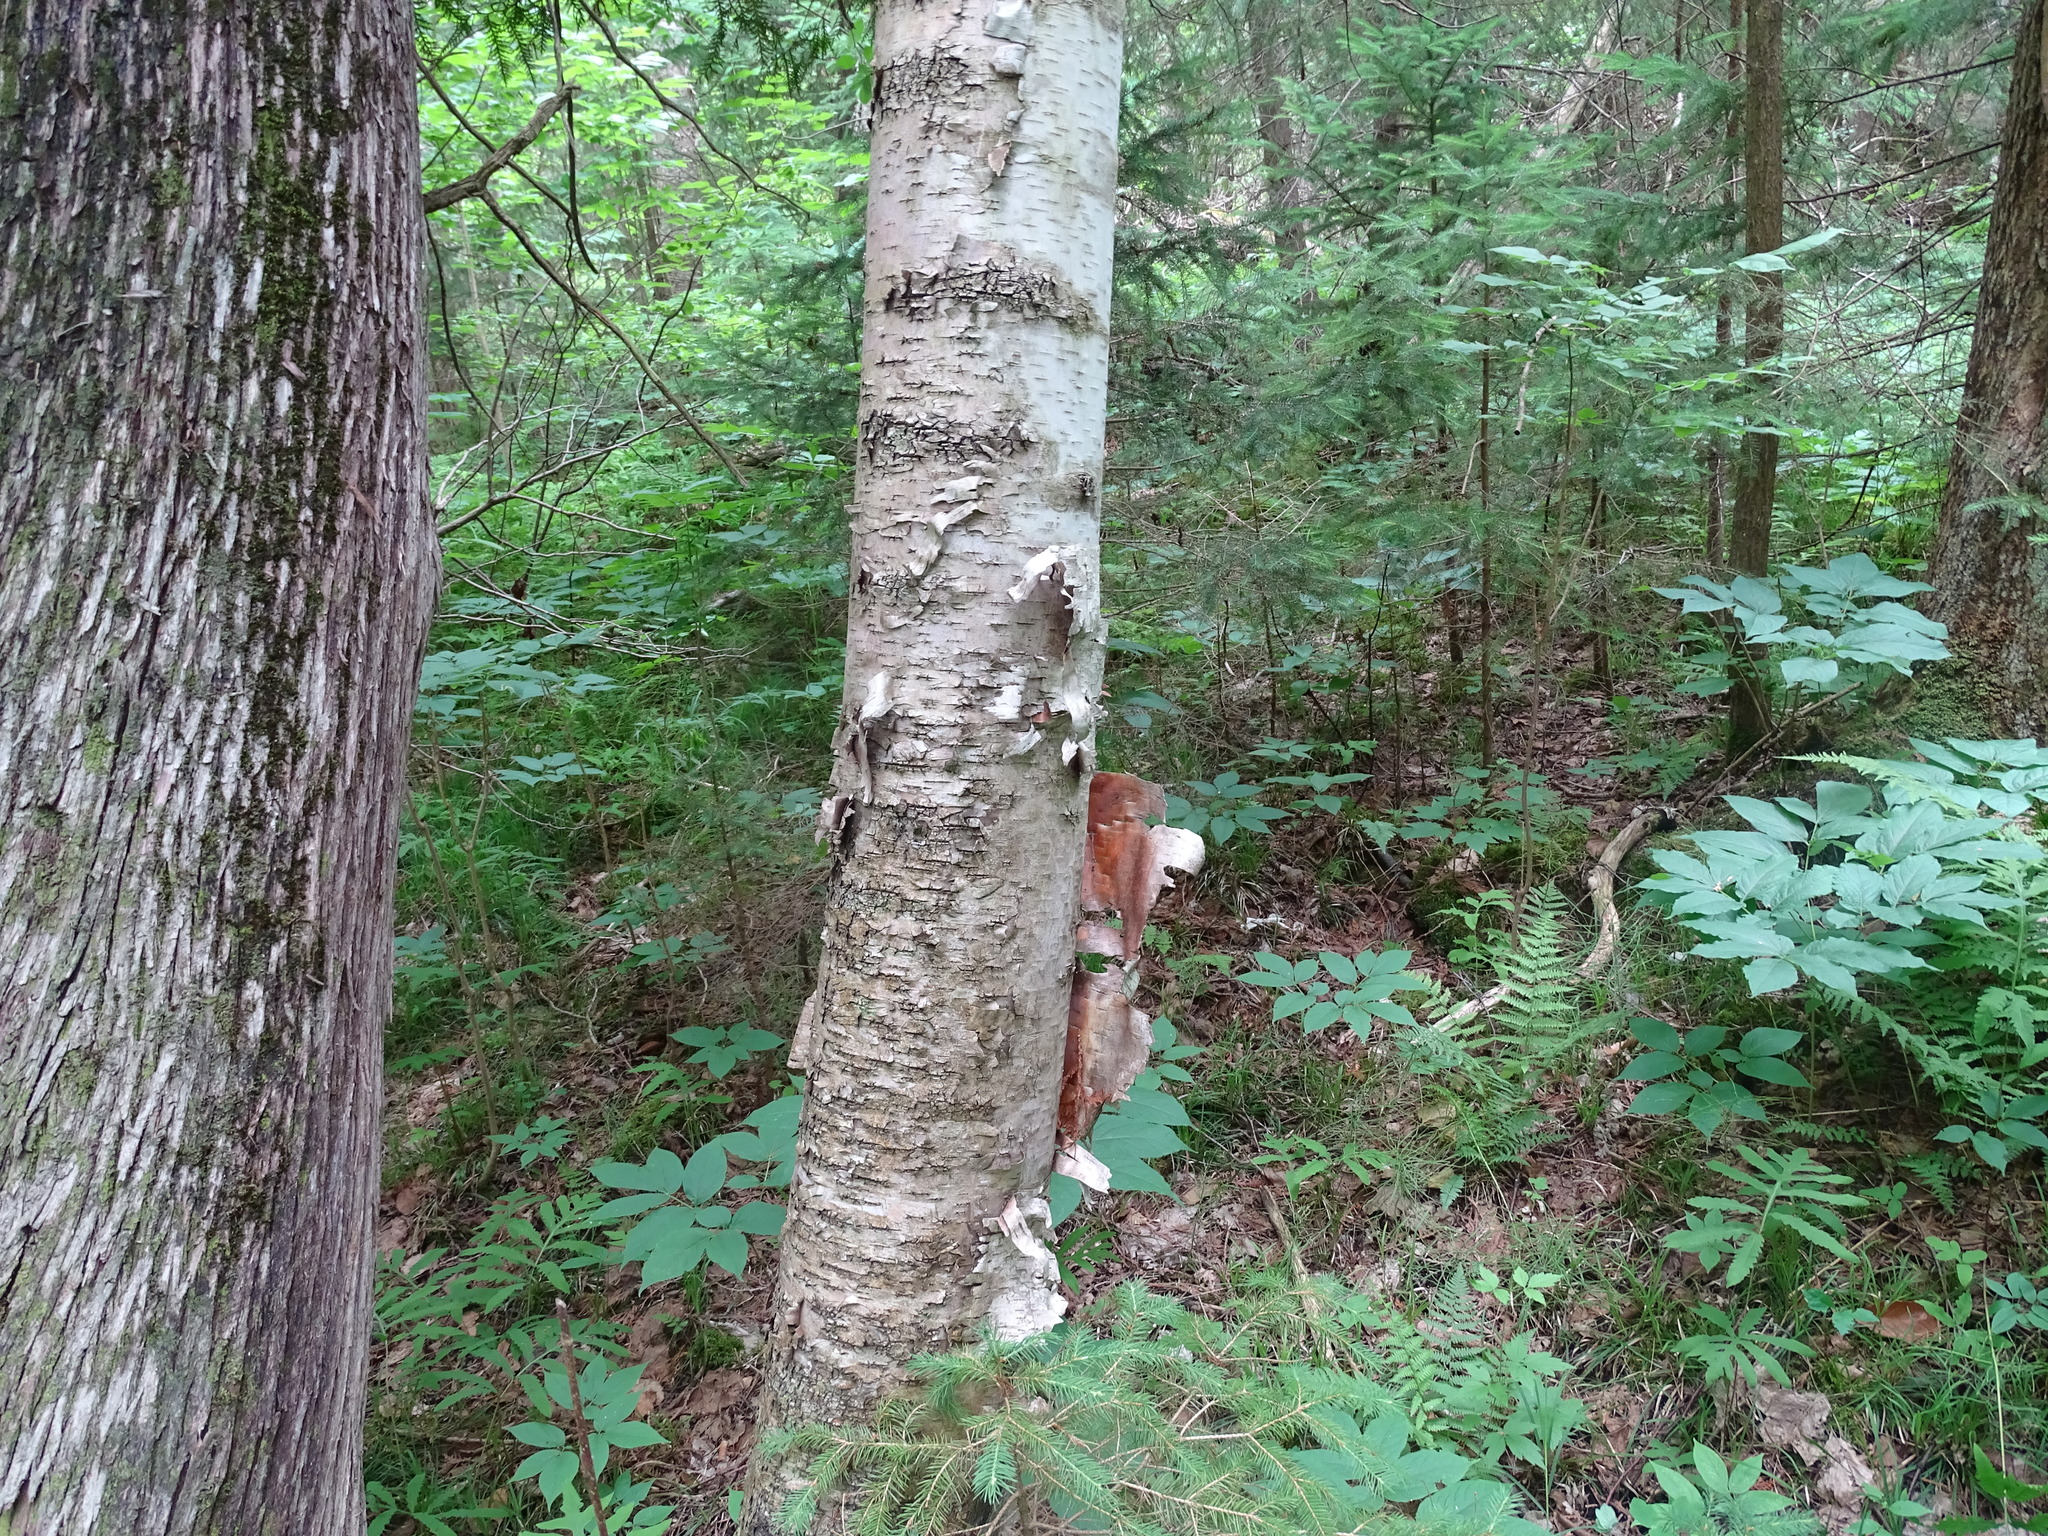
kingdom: Plantae
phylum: Tracheophyta
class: Magnoliopsida
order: Fagales
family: Betulaceae
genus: Betula
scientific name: Betula papyrifera
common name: Paper birch
